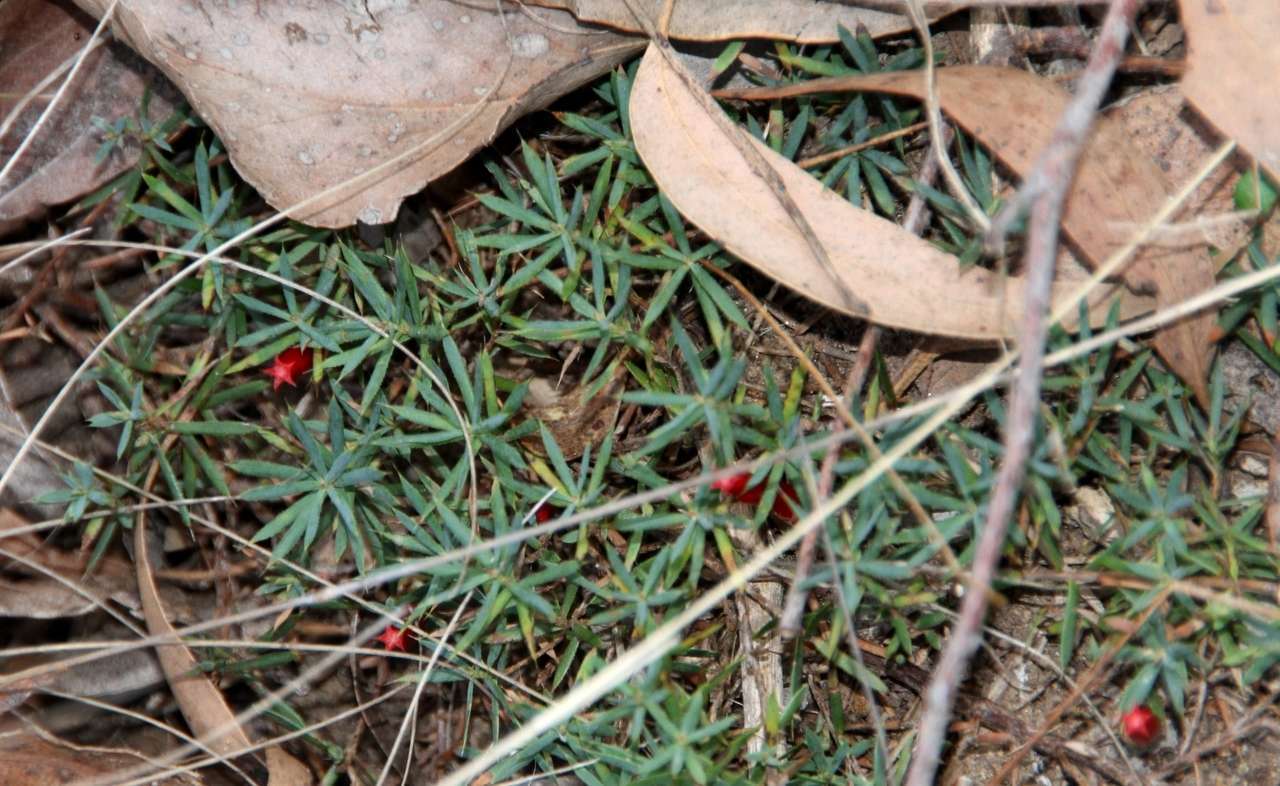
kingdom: Plantae
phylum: Tracheophyta
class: Magnoliopsida
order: Ericales
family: Ericaceae
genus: Styphelia
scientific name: Styphelia humifusa
